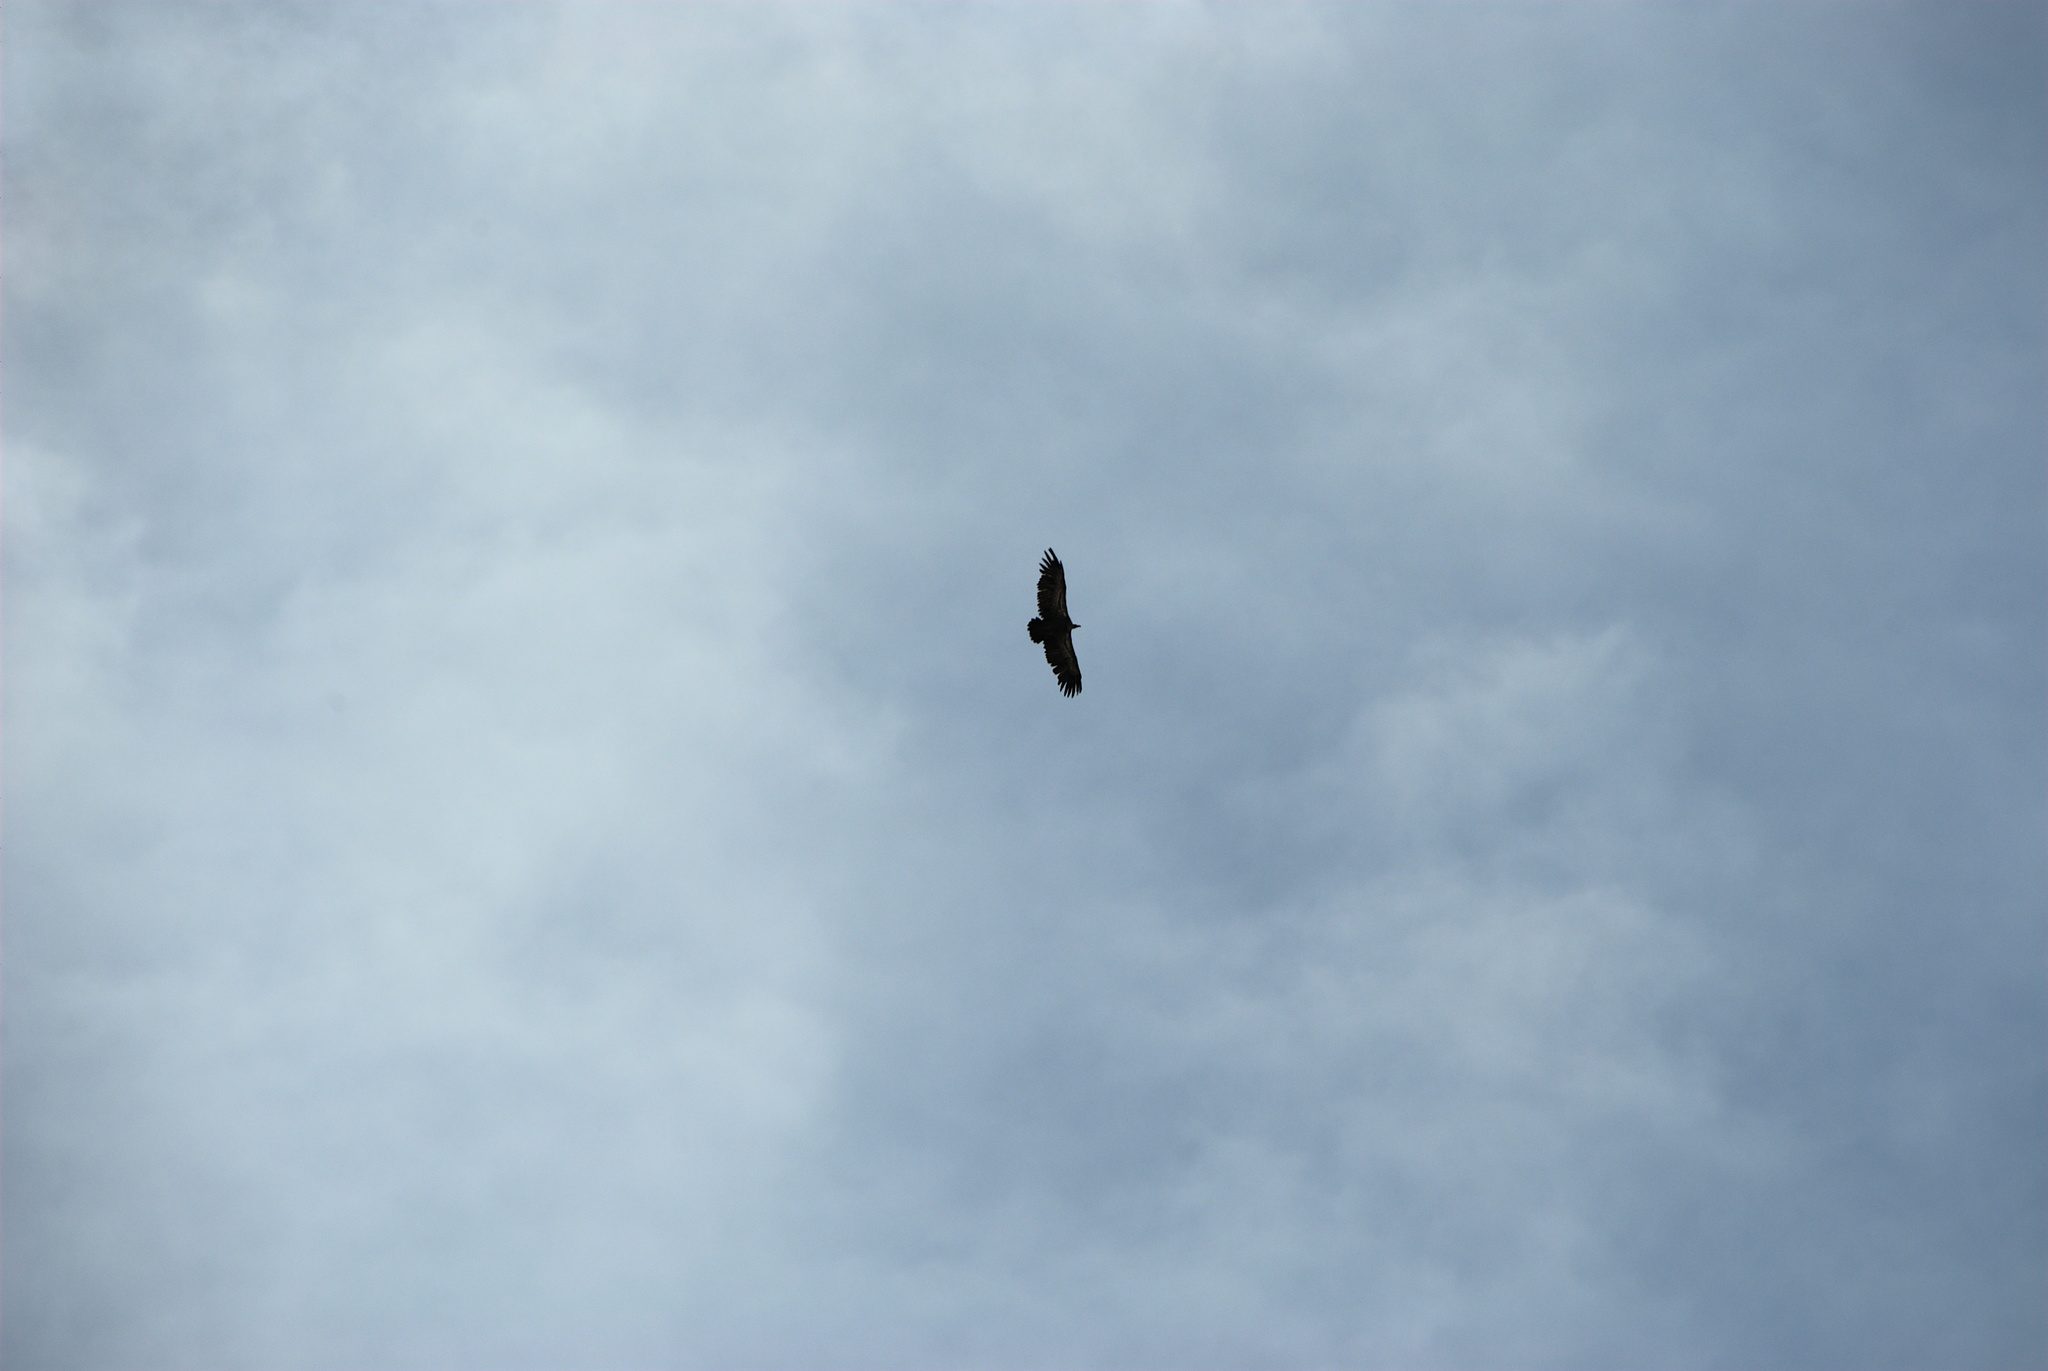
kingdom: Animalia
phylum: Chordata
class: Aves
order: Accipitriformes
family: Accipitridae
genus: Gyps
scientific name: Gyps fulvus
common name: Griffon vulture
